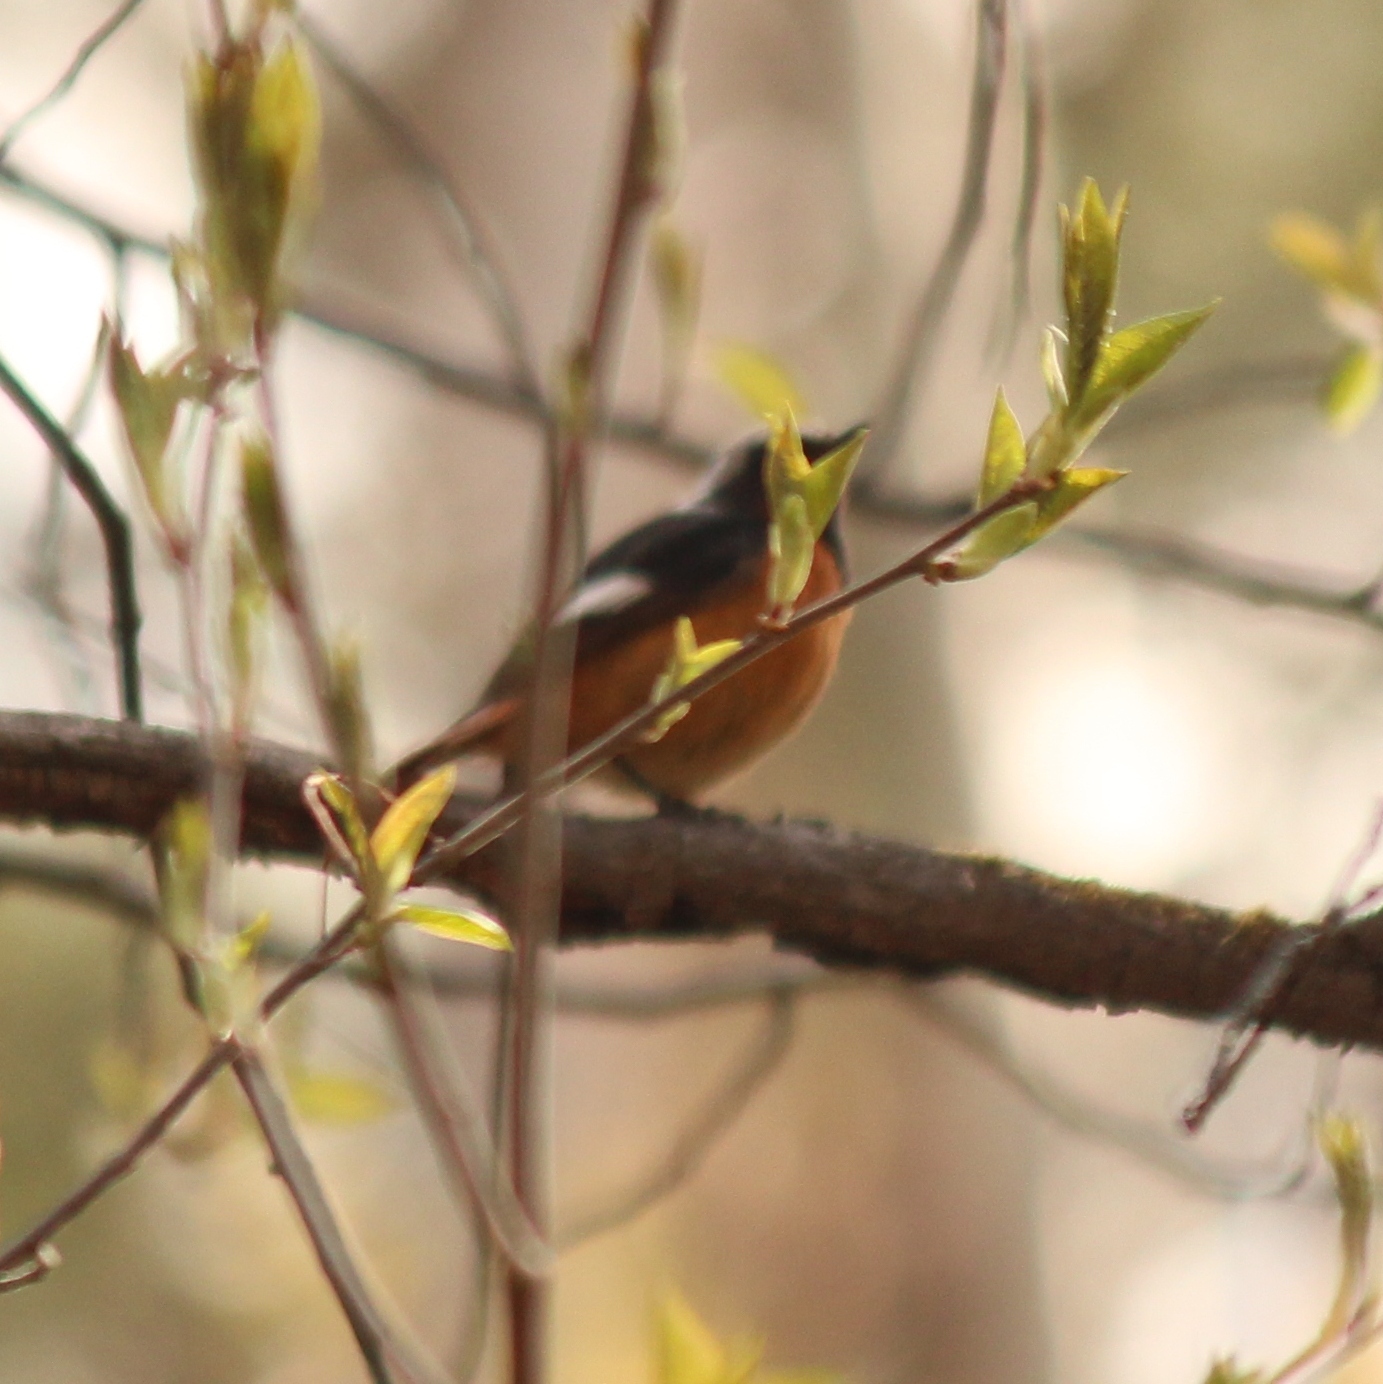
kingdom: Animalia
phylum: Chordata
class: Aves
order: Passeriformes
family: Muscicapidae
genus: Phoenicurus
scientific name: Phoenicurus auroreus
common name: Daurian redstart
